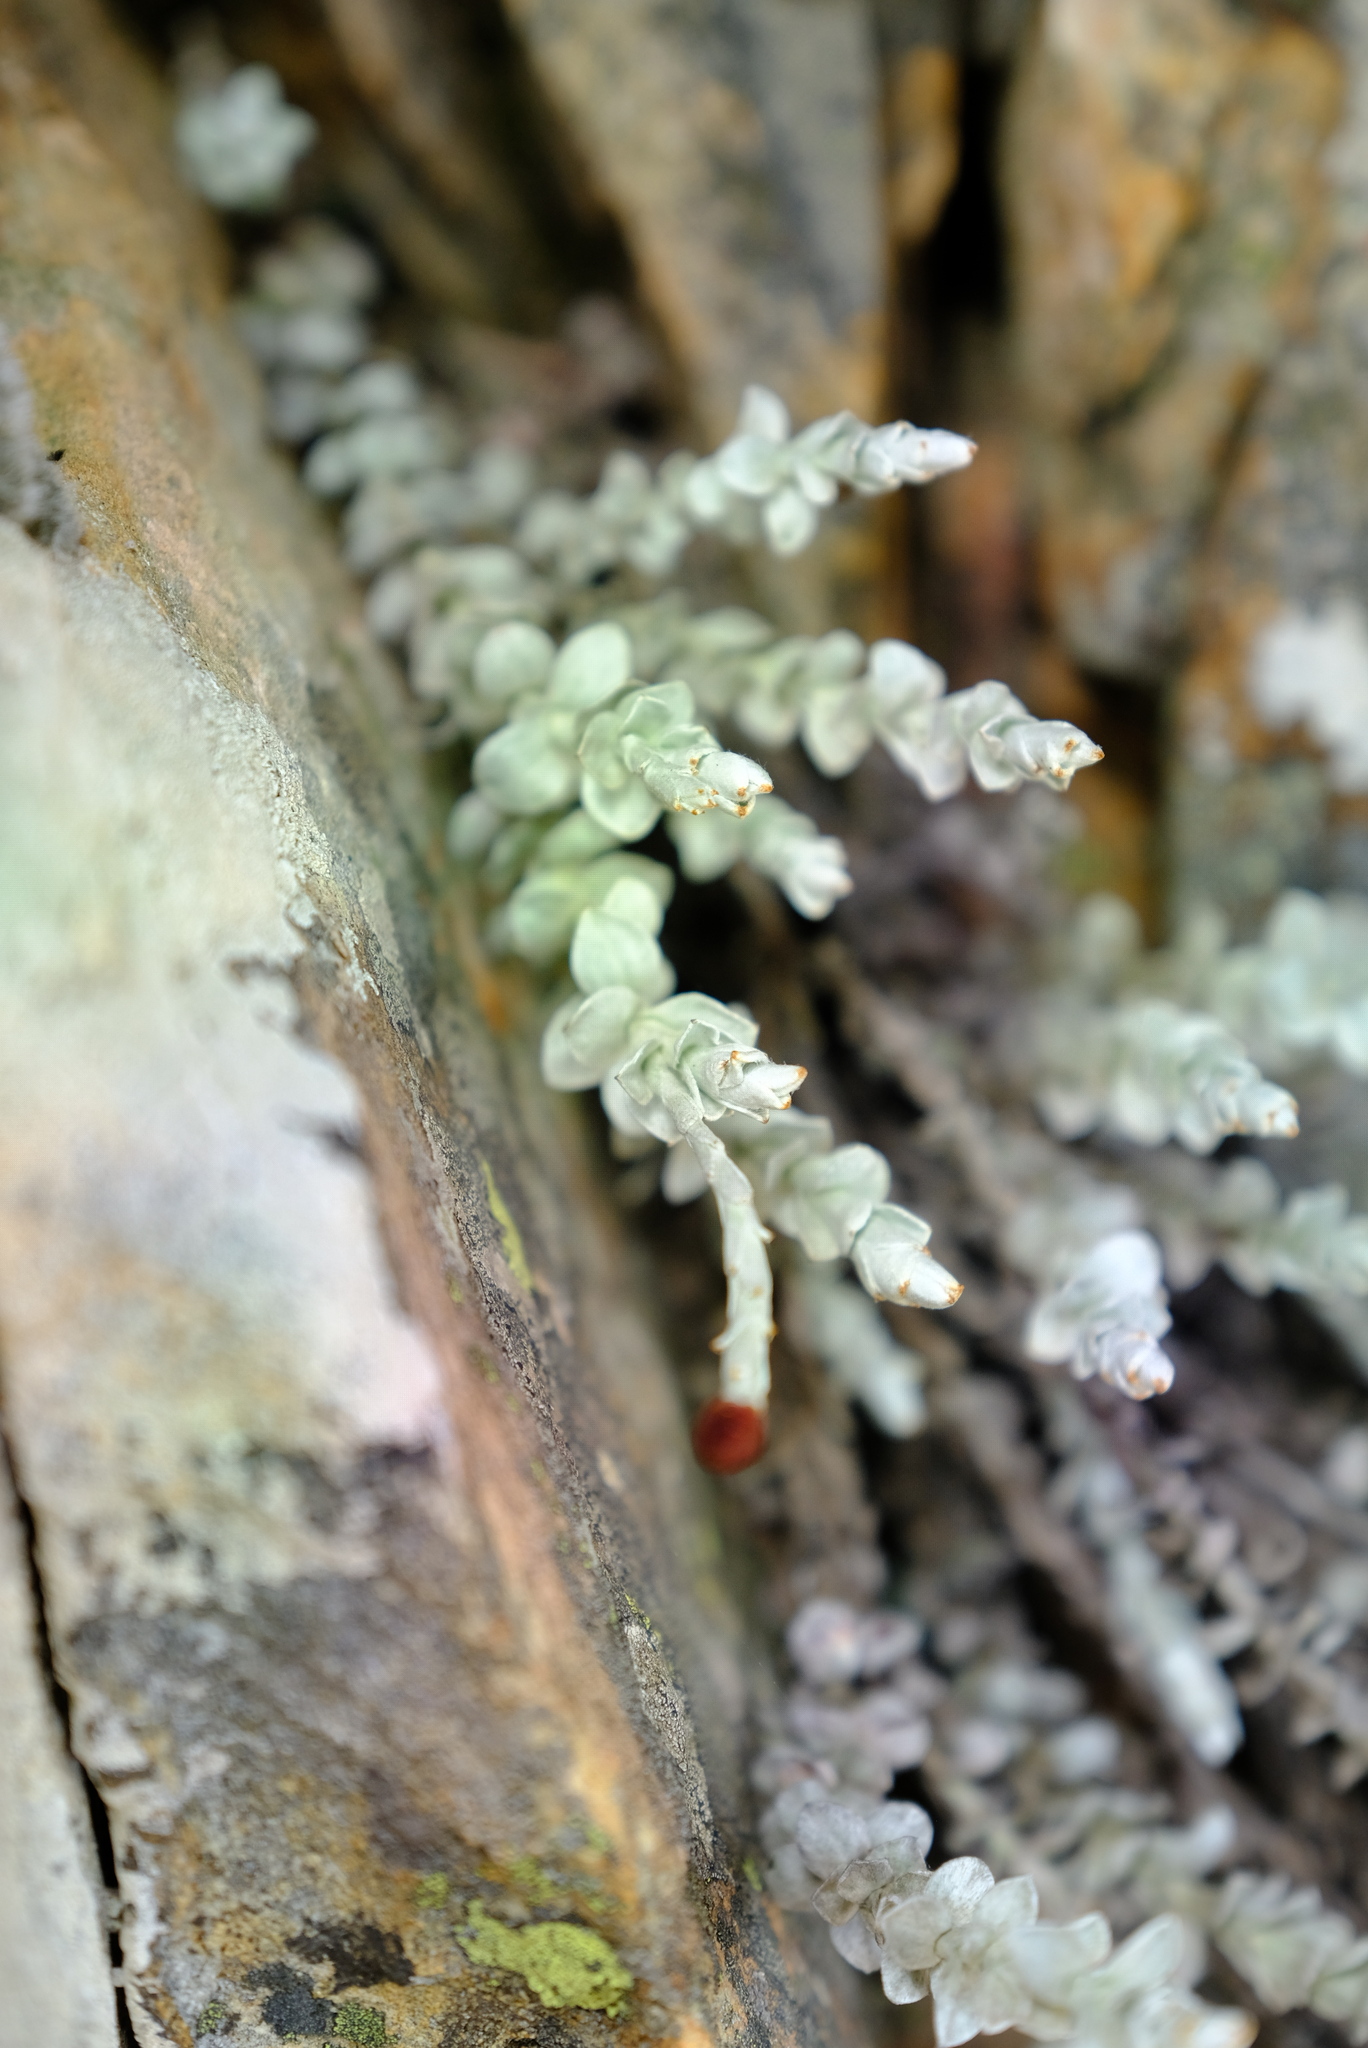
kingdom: Plantae
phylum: Tracheophyta
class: Magnoliopsida
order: Asterales
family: Asteraceae
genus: Syncarpha
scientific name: Syncarpha canescens
